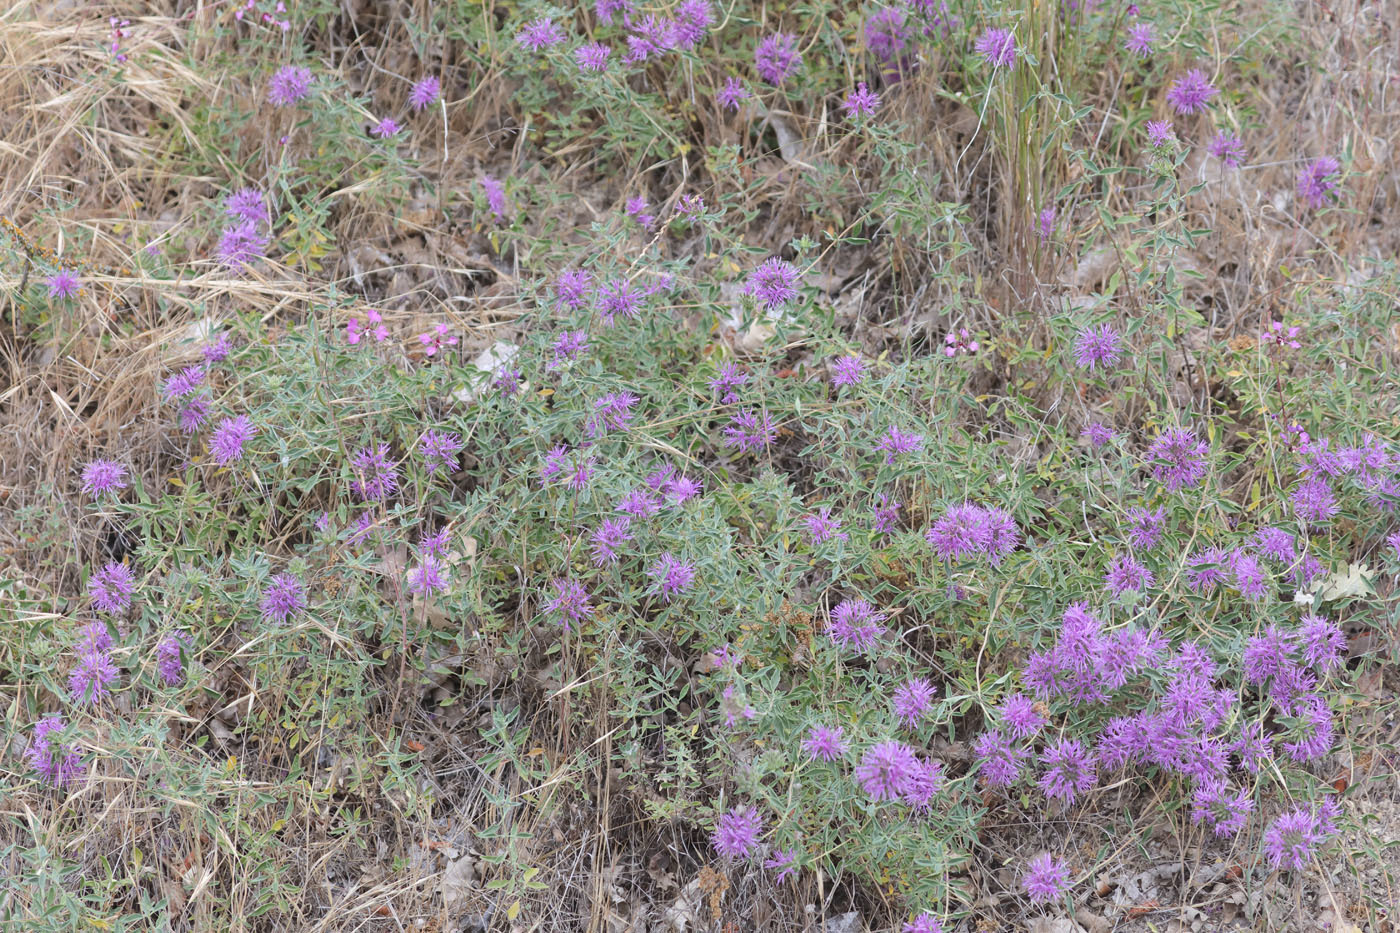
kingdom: Plantae
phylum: Tracheophyta
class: Magnoliopsida
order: Lamiales
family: Lamiaceae
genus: Monardella
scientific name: Monardella odoratissima
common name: Pacific monardella
